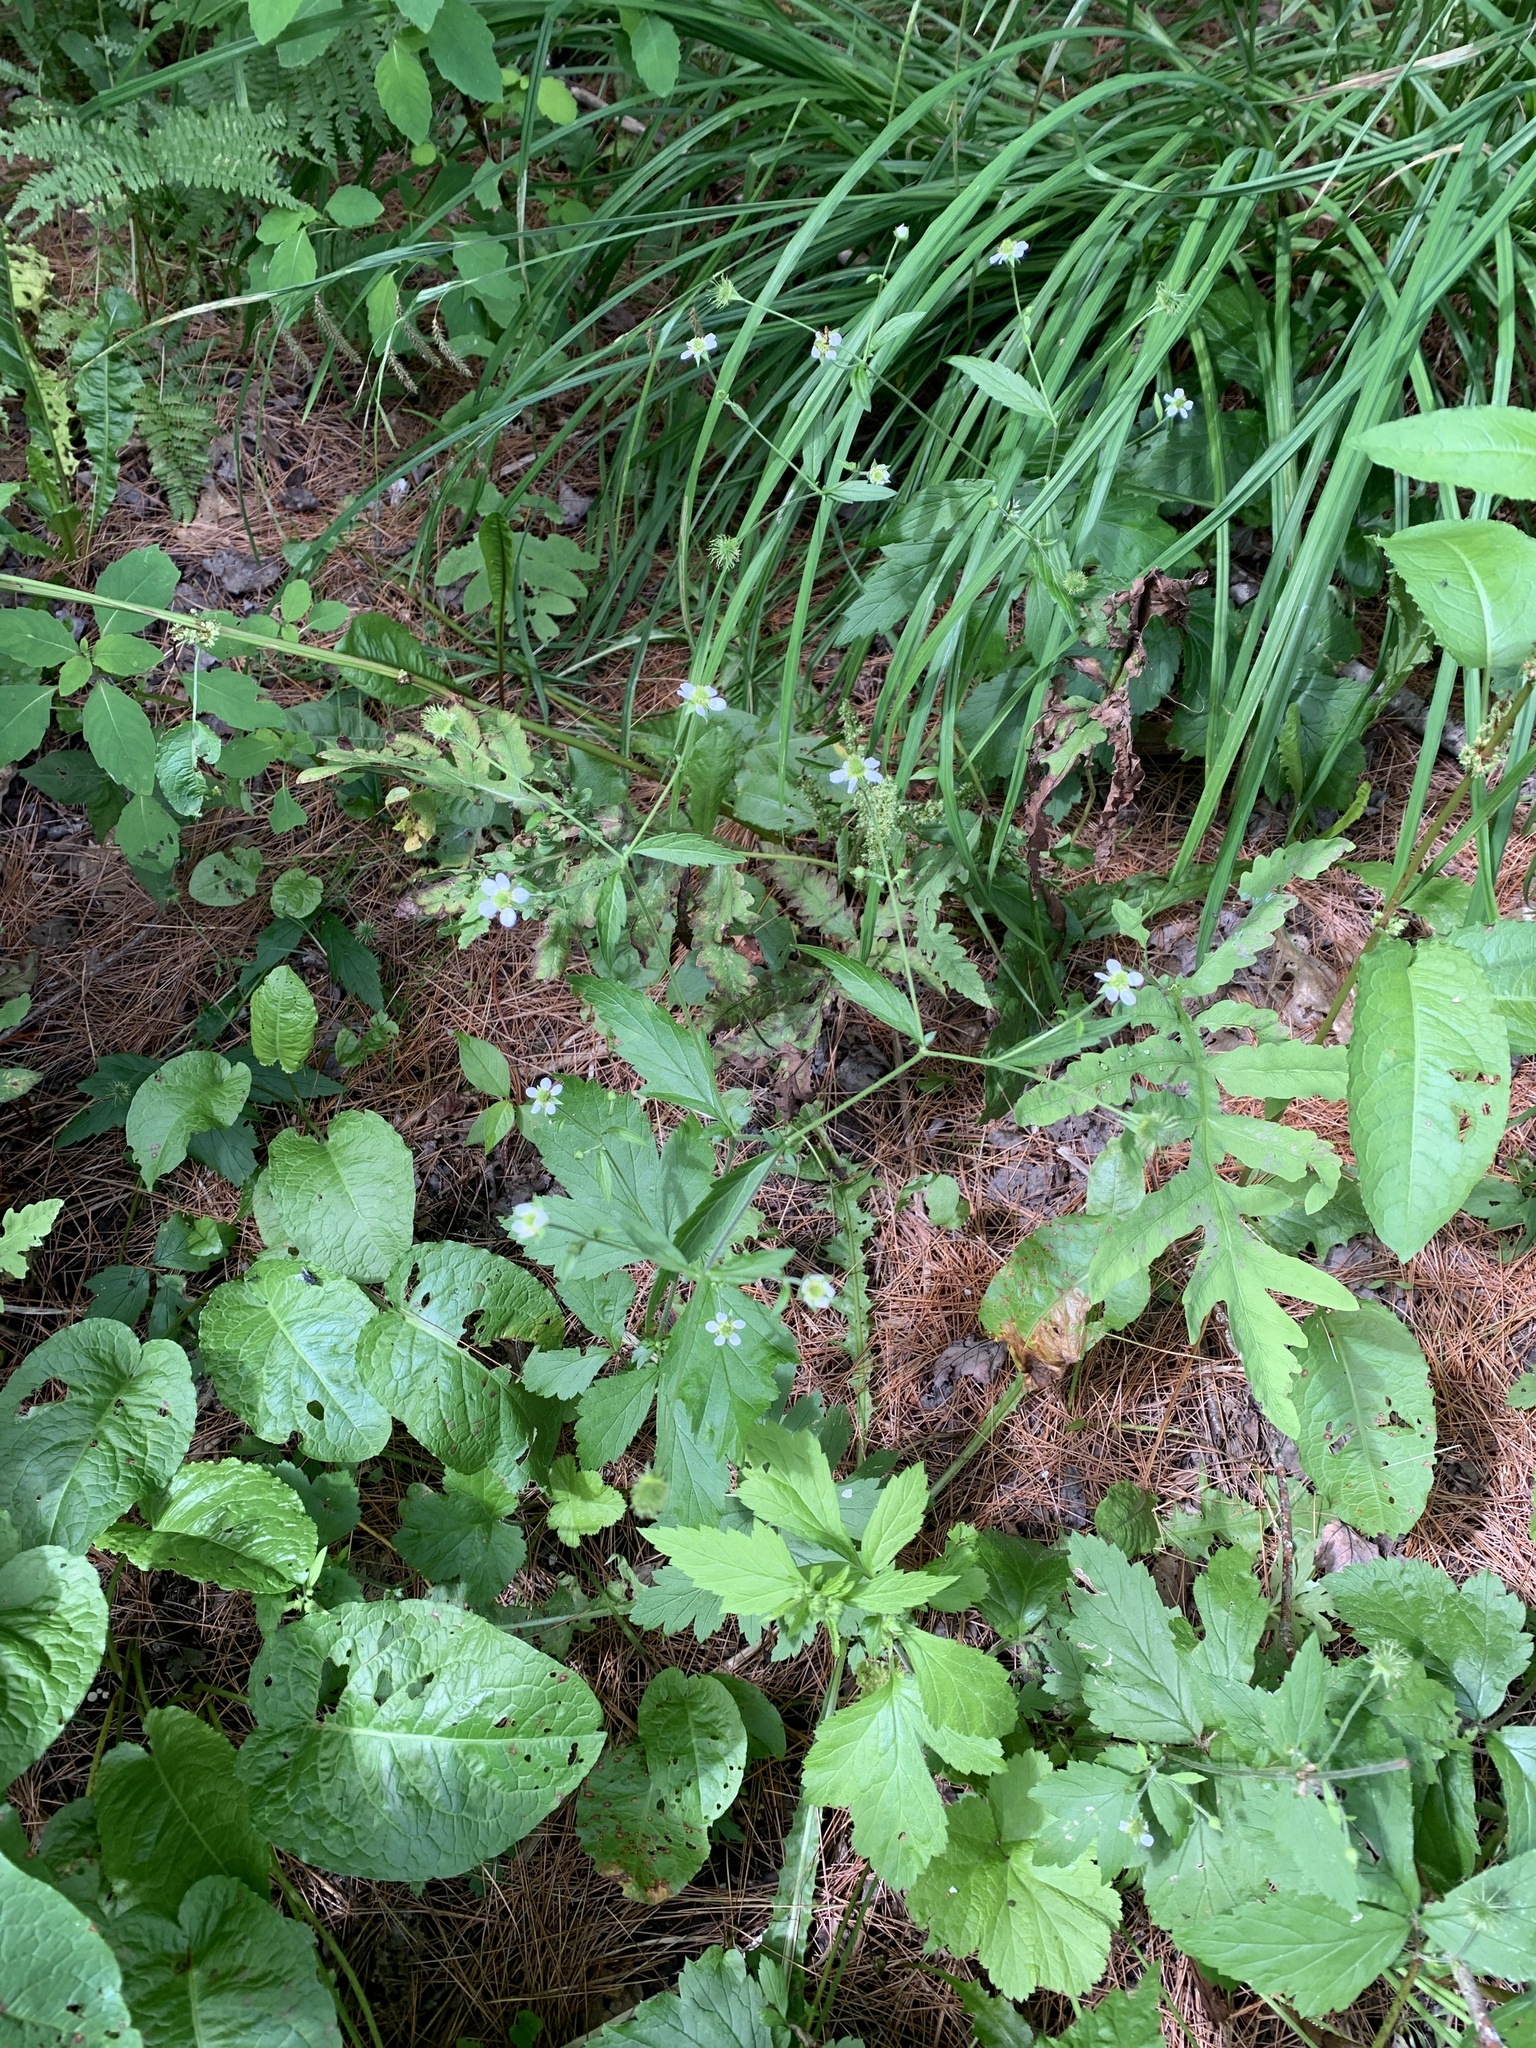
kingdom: Plantae
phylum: Tracheophyta
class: Magnoliopsida
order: Rosales
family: Rosaceae
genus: Geum
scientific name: Geum canadense
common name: White avens
